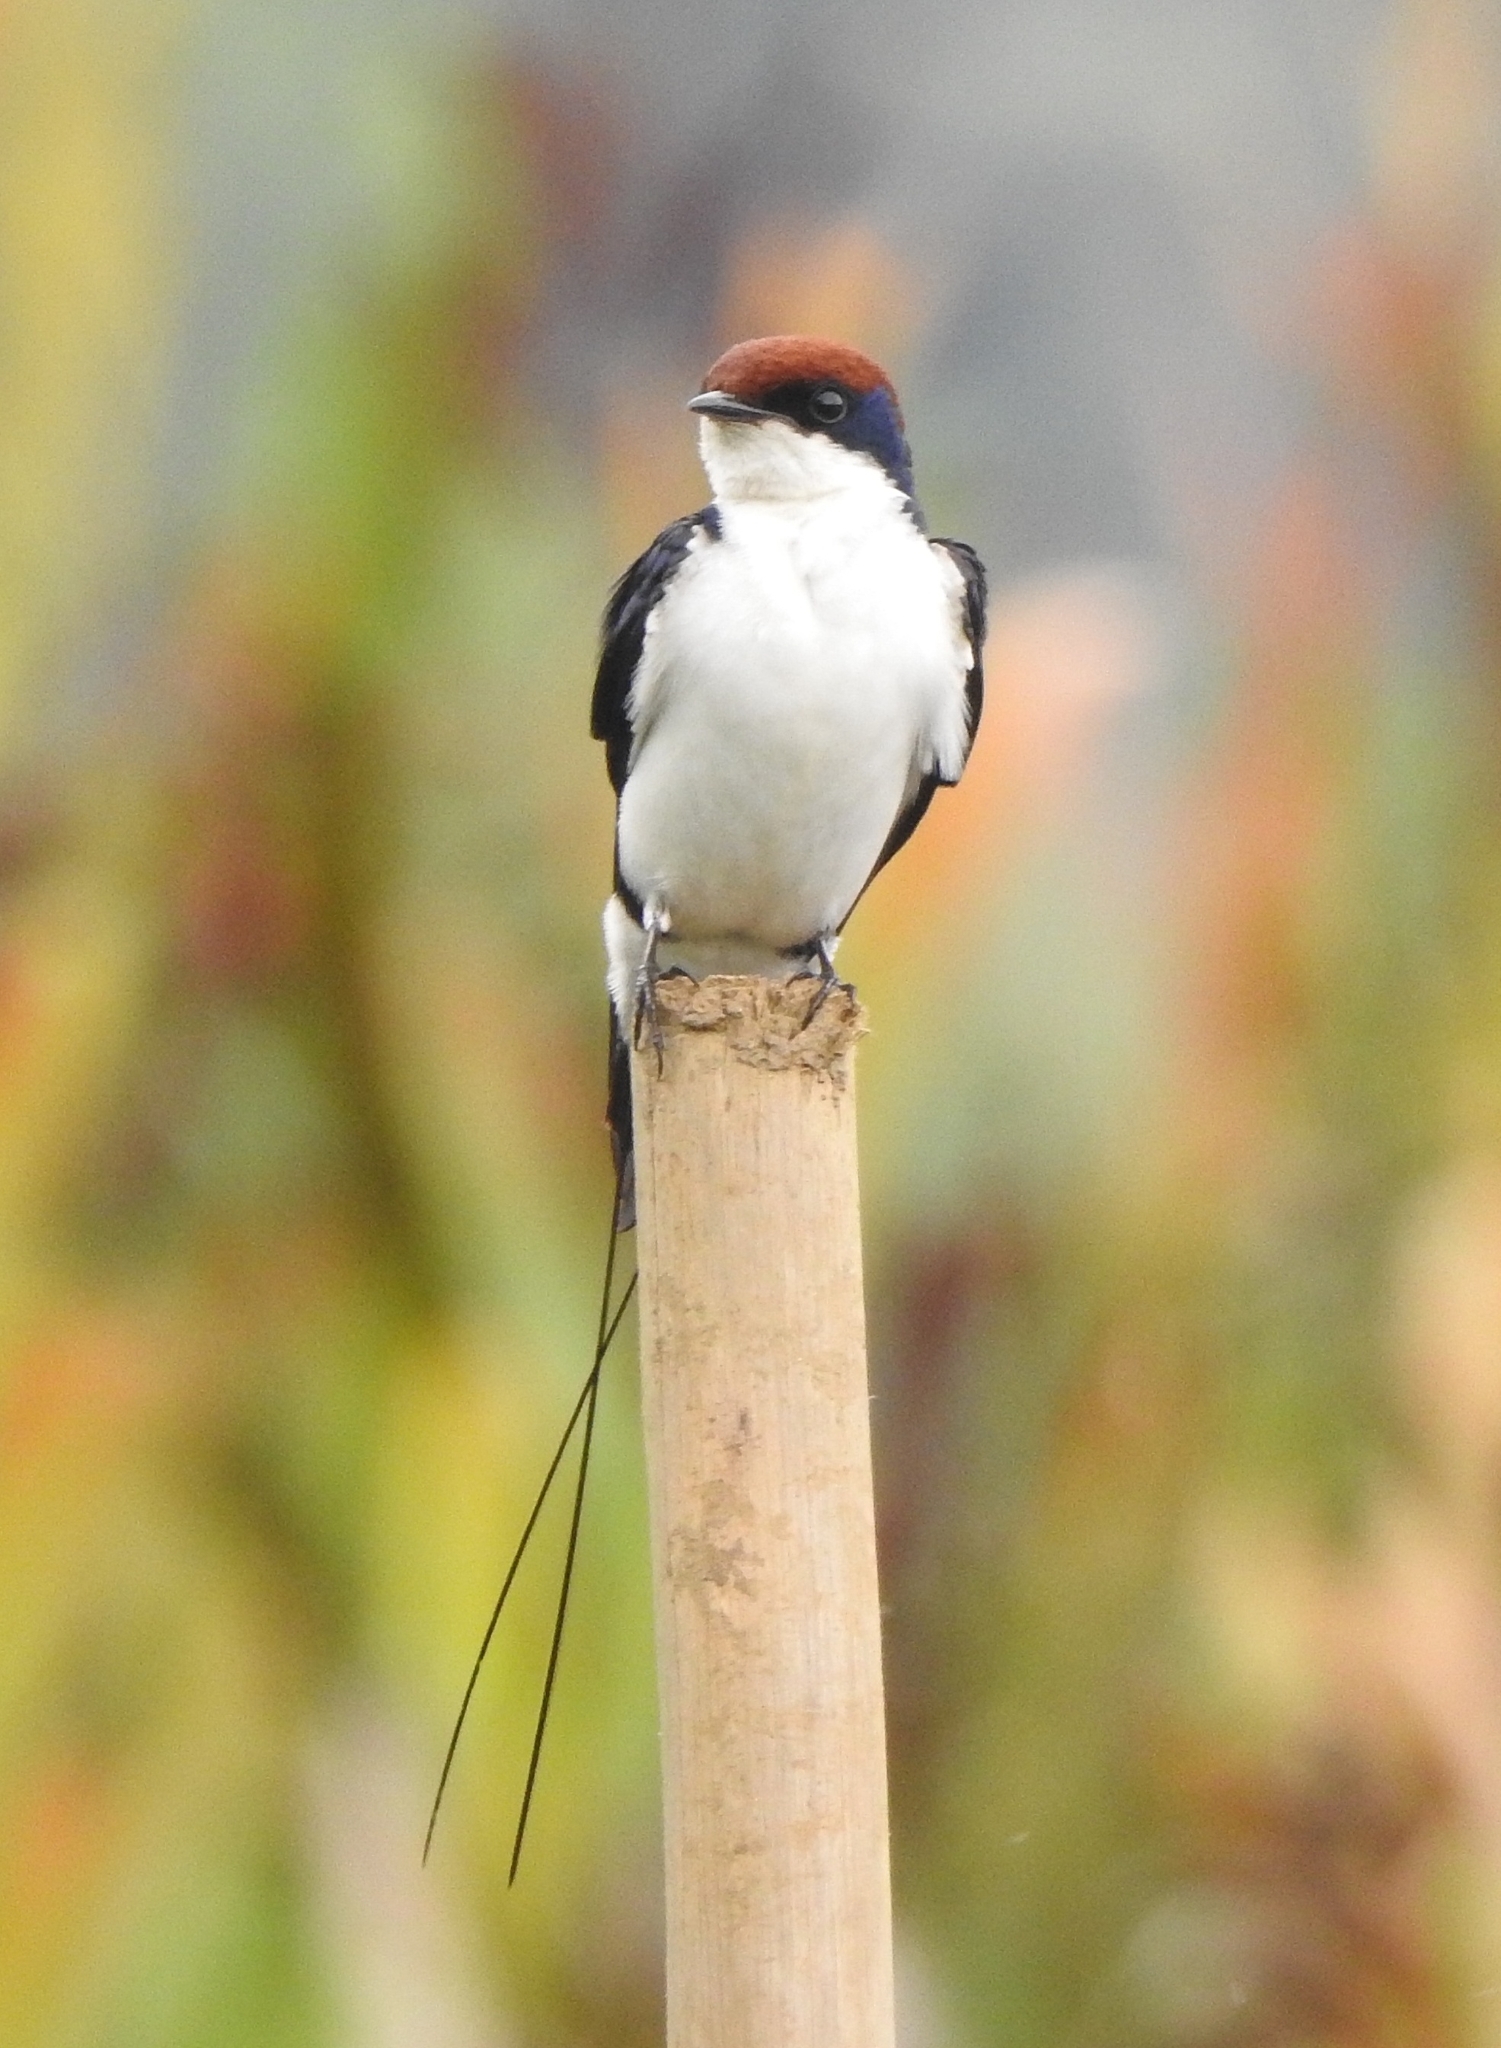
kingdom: Animalia
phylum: Chordata
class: Aves
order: Passeriformes
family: Hirundinidae
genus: Hirundo
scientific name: Hirundo smithii
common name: Wire-tailed swallow
